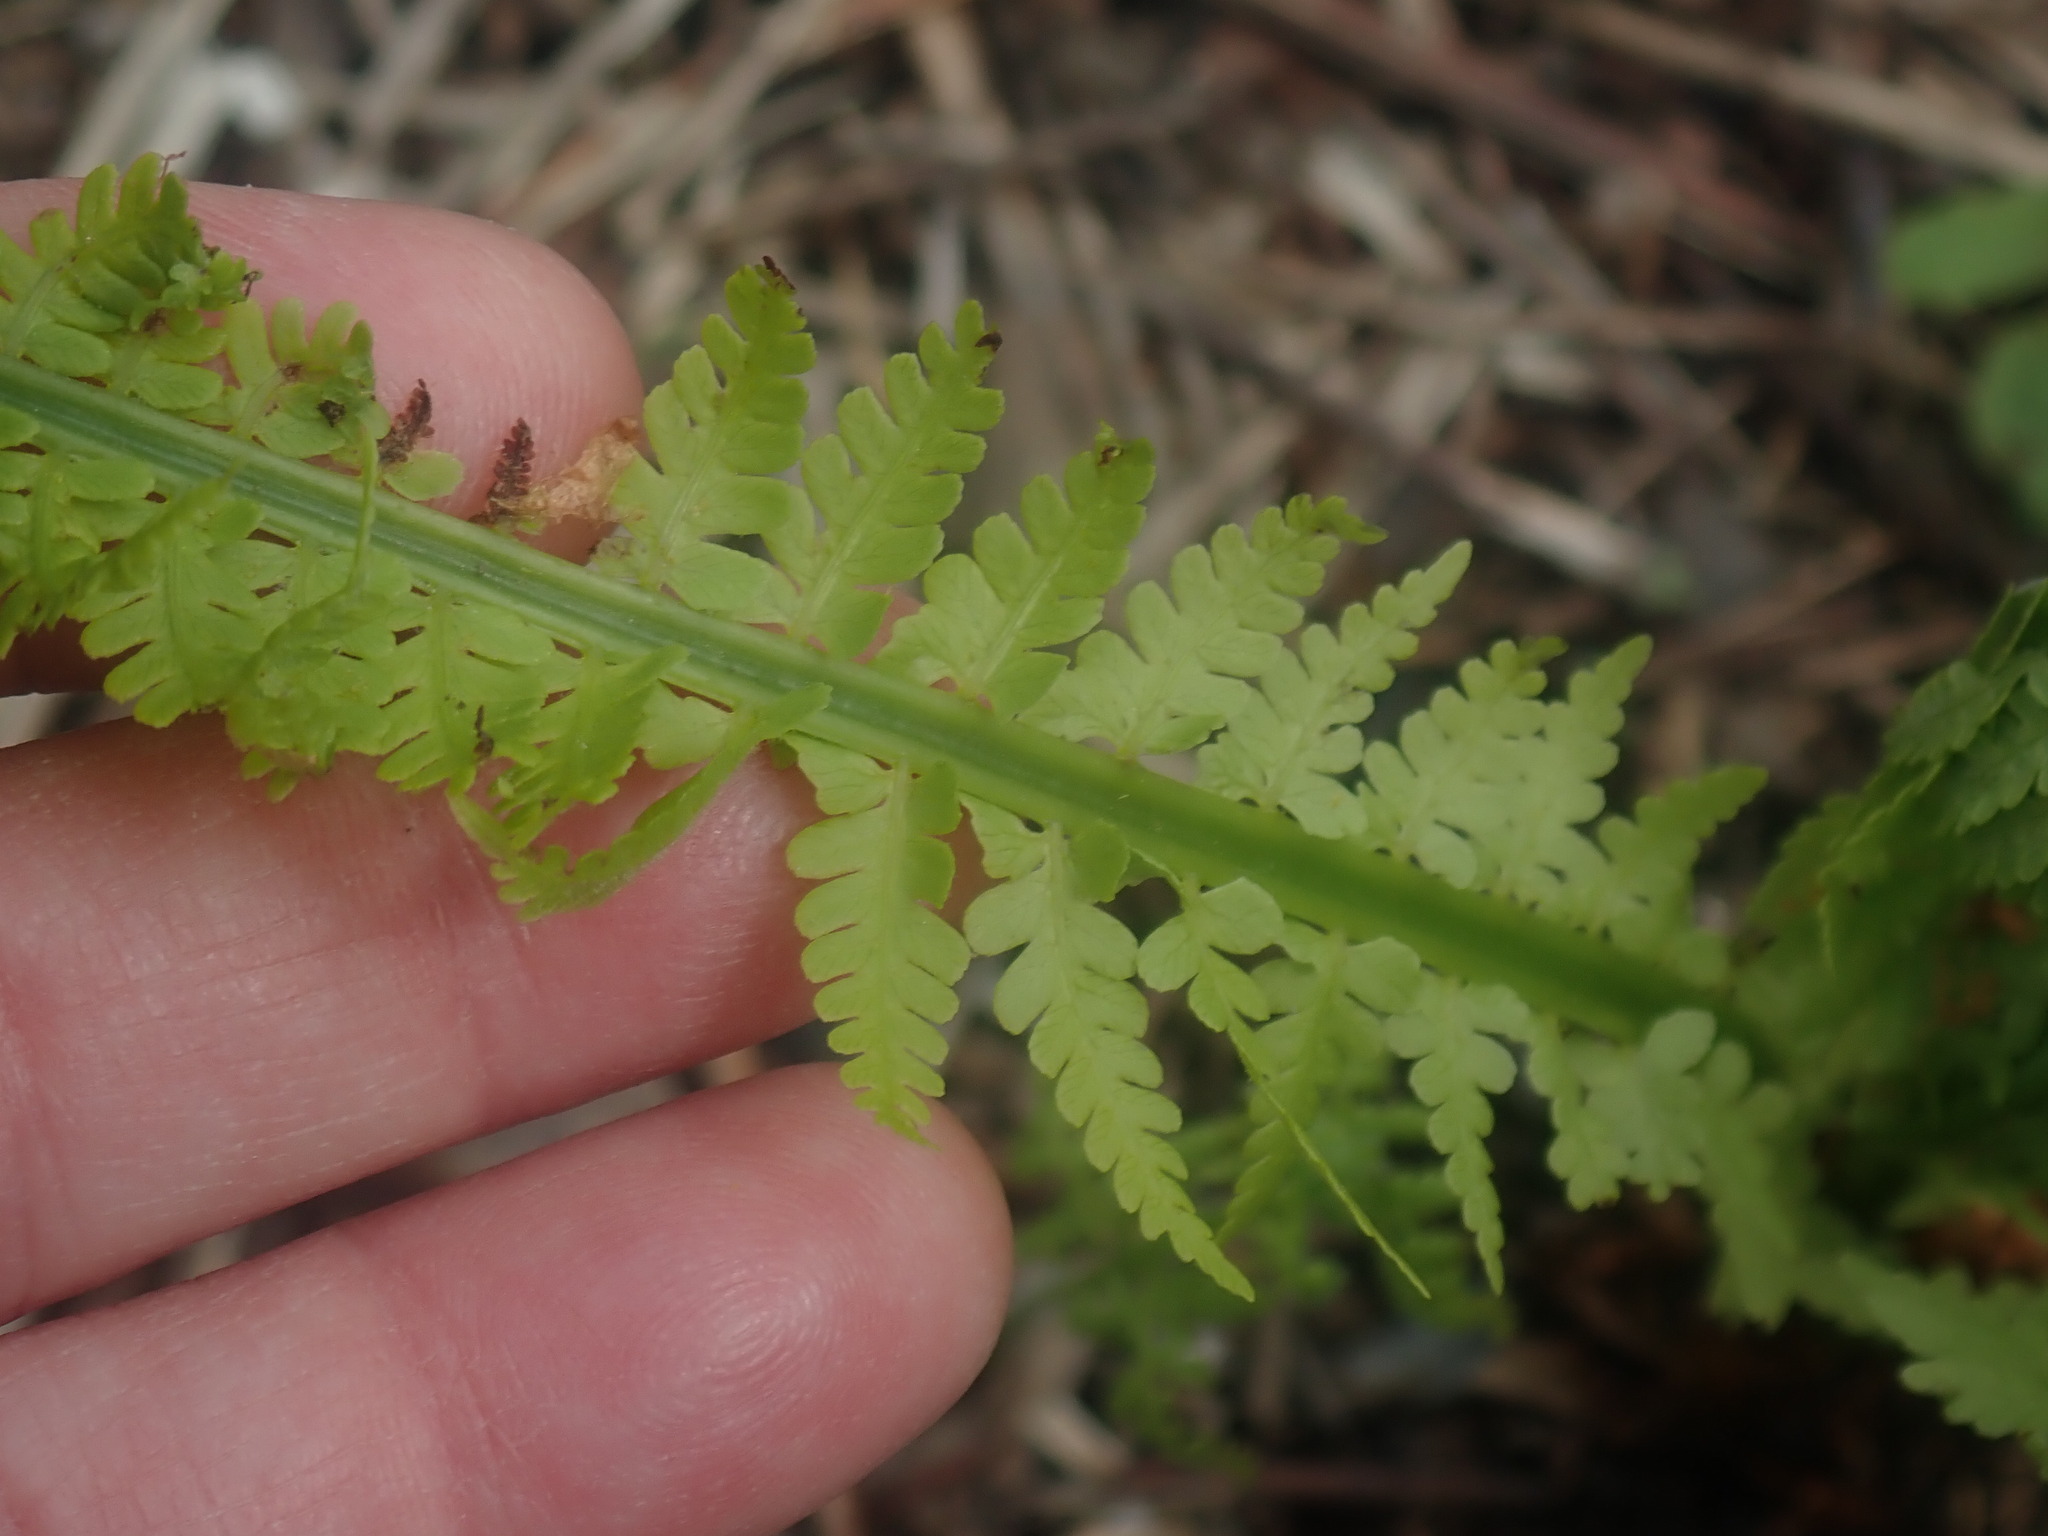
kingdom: Plantae
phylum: Tracheophyta
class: Polypodiopsida
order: Polypodiales
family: Onocleaceae
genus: Matteuccia
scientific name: Matteuccia struthiopteris
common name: Ostrich fern
